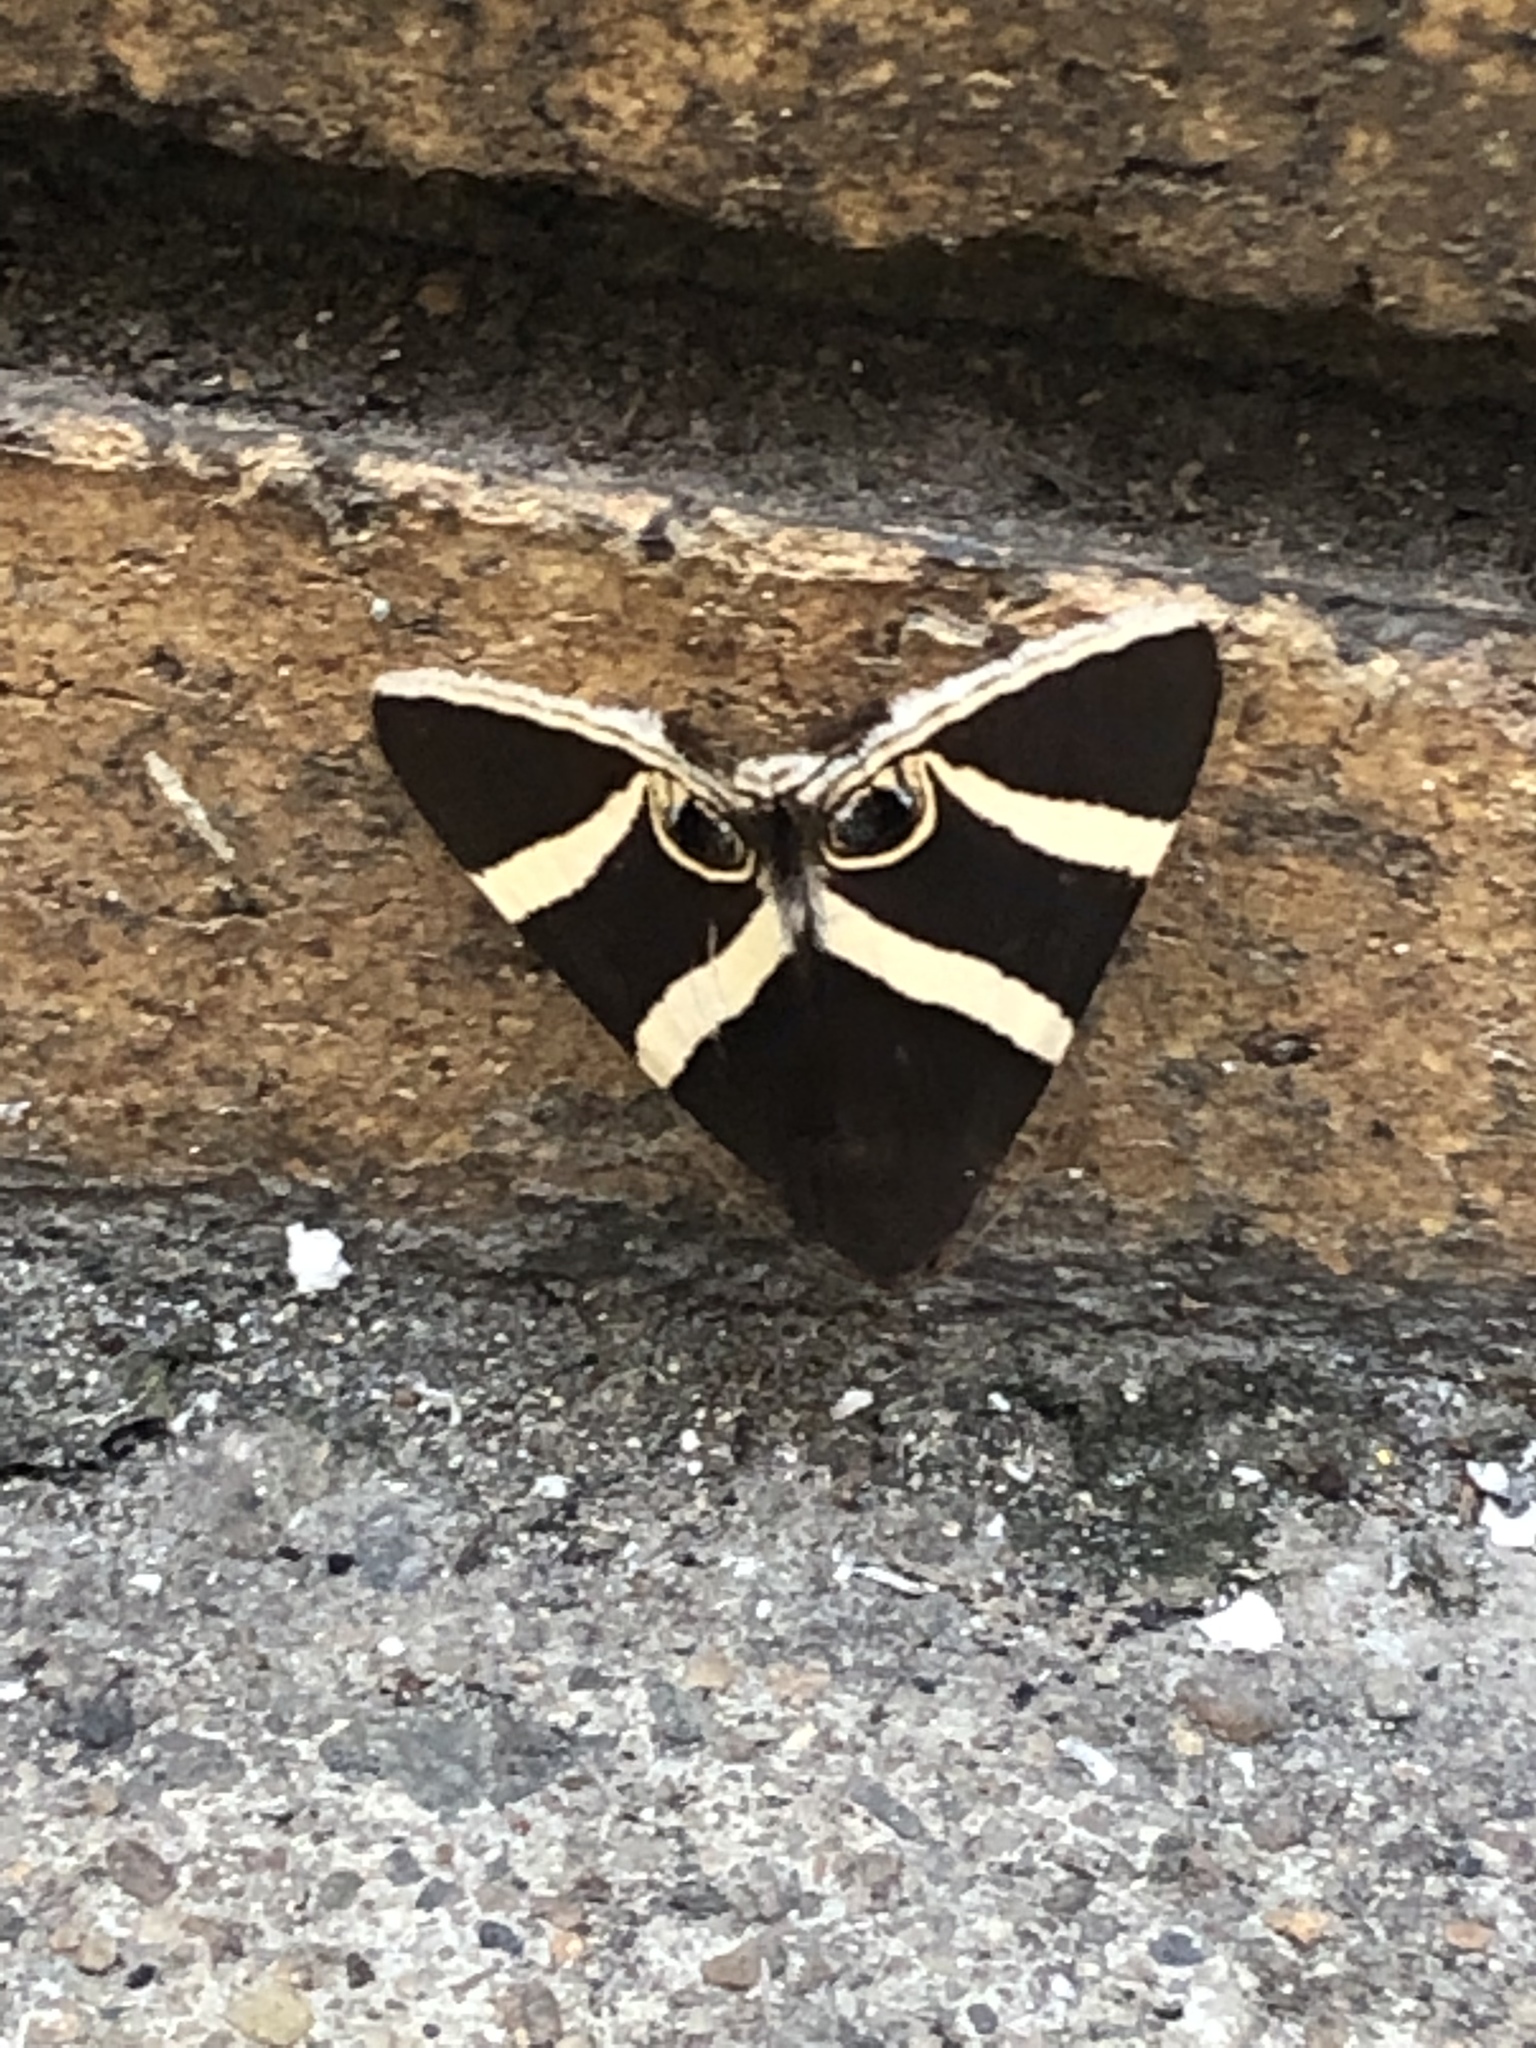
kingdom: Animalia
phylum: Arthropoda
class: Insecta
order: Lepidoptera
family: Erebidae
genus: Grammodes
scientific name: Grammodes ocellata
